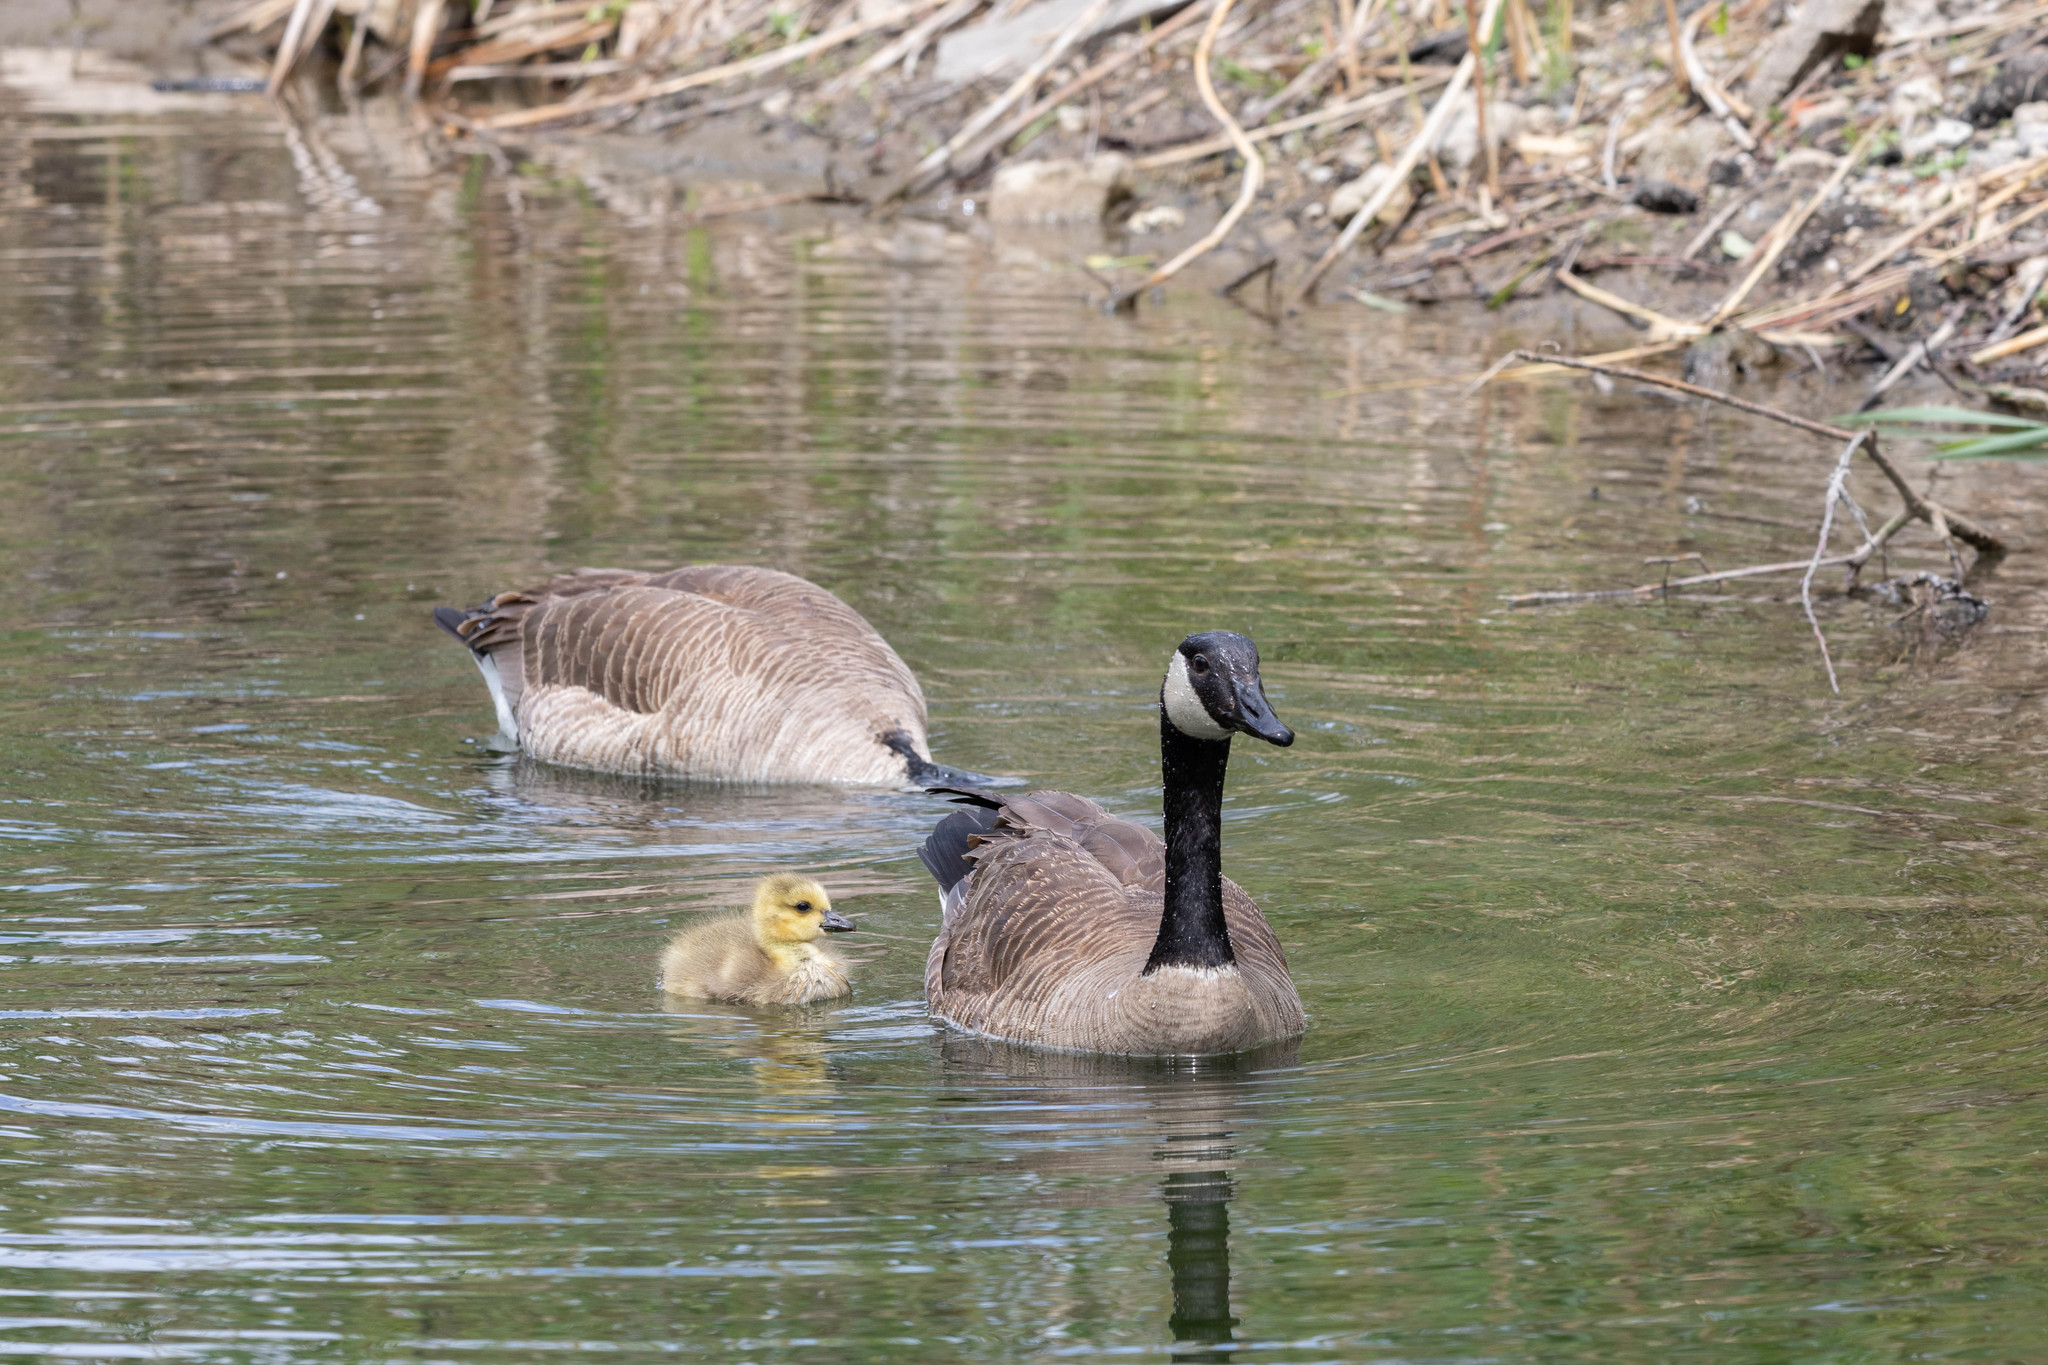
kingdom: Animalia
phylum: Chordata
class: Aves
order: Anseriformes
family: Anatidae
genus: Branta
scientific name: Branta canadensis
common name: Canada goose
